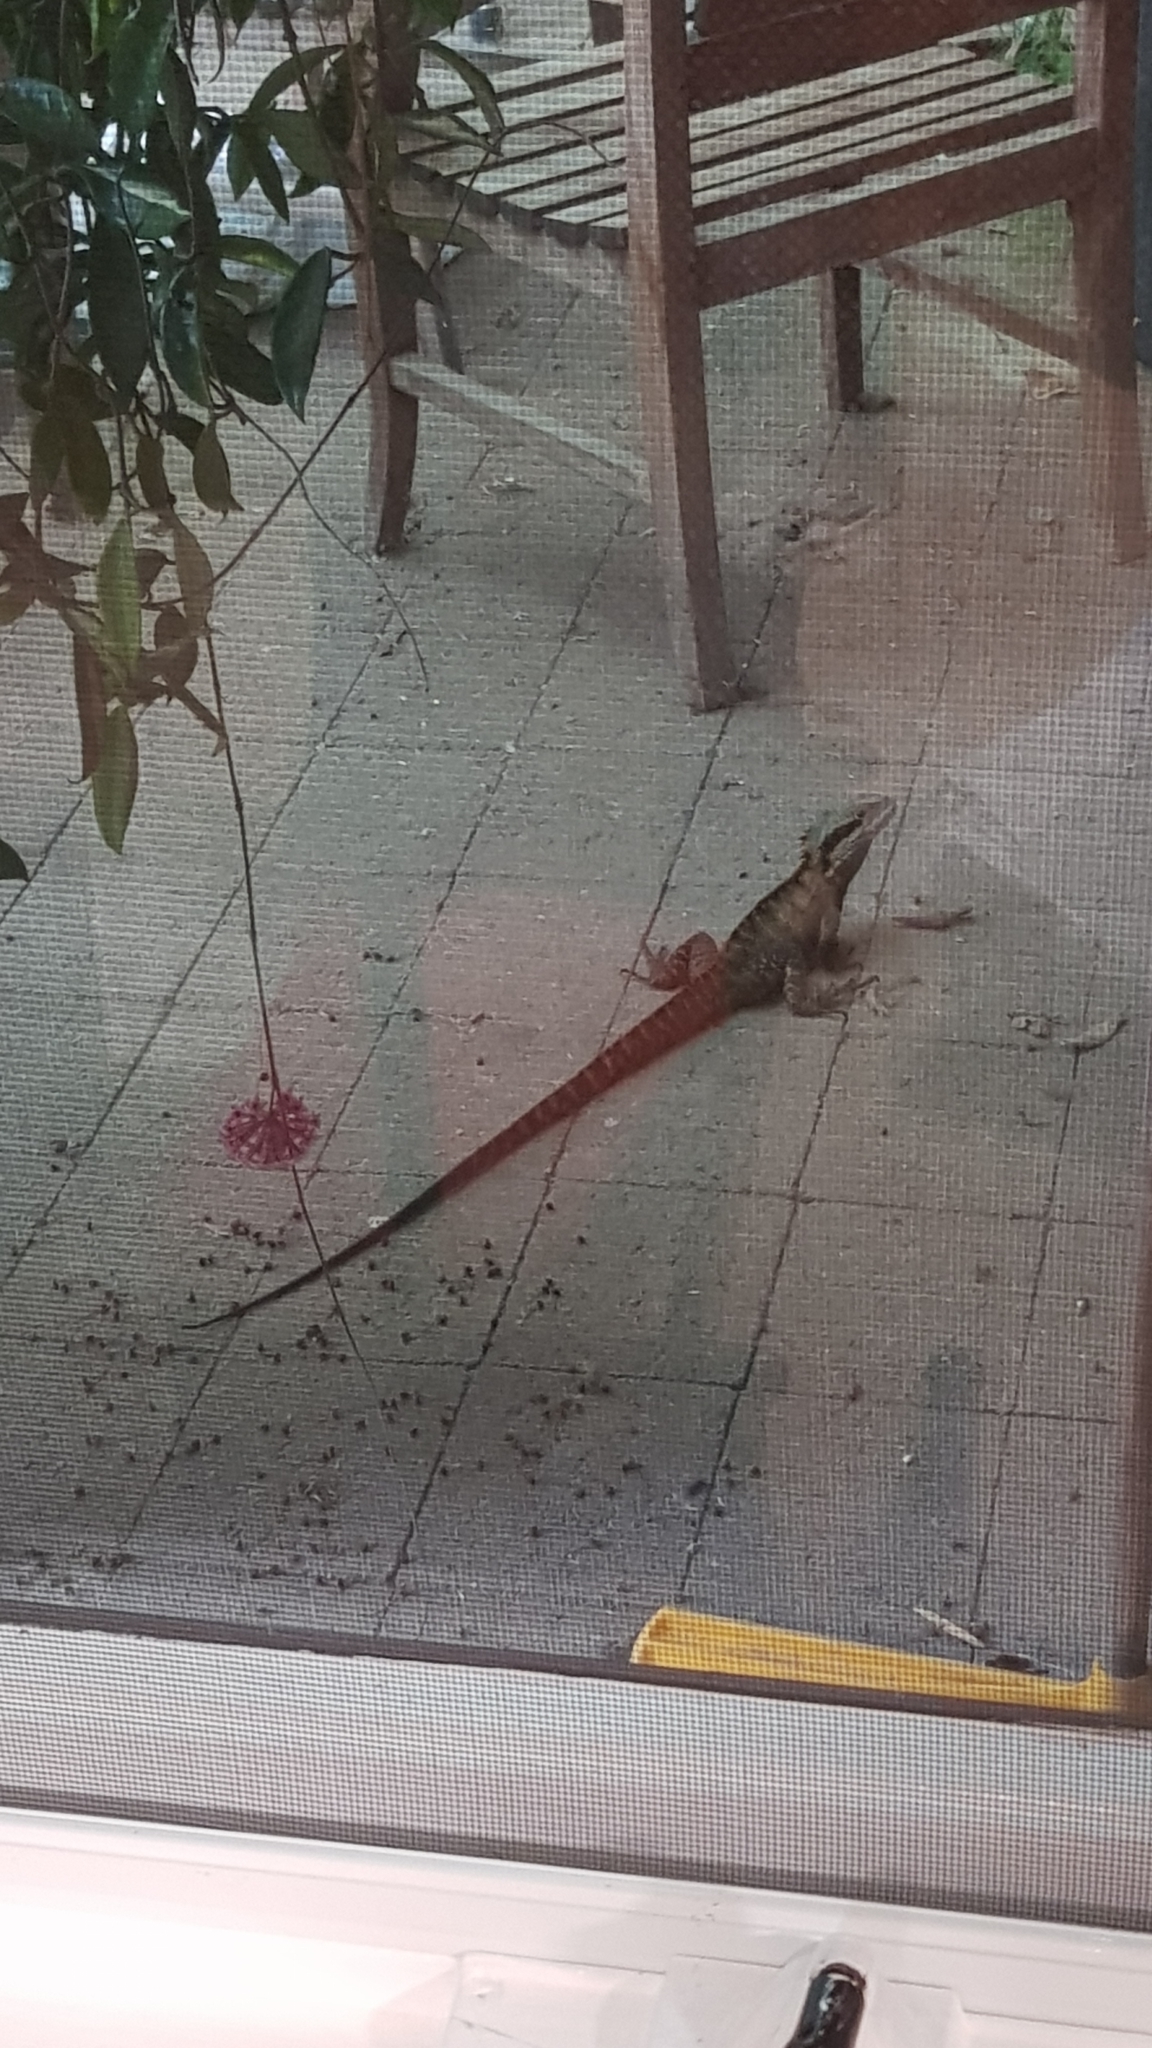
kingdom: Animalia
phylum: Chordata
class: Squamata
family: Agamidae
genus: Intellagama
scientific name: Intellagama lesueurii
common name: Eastern water dragon
